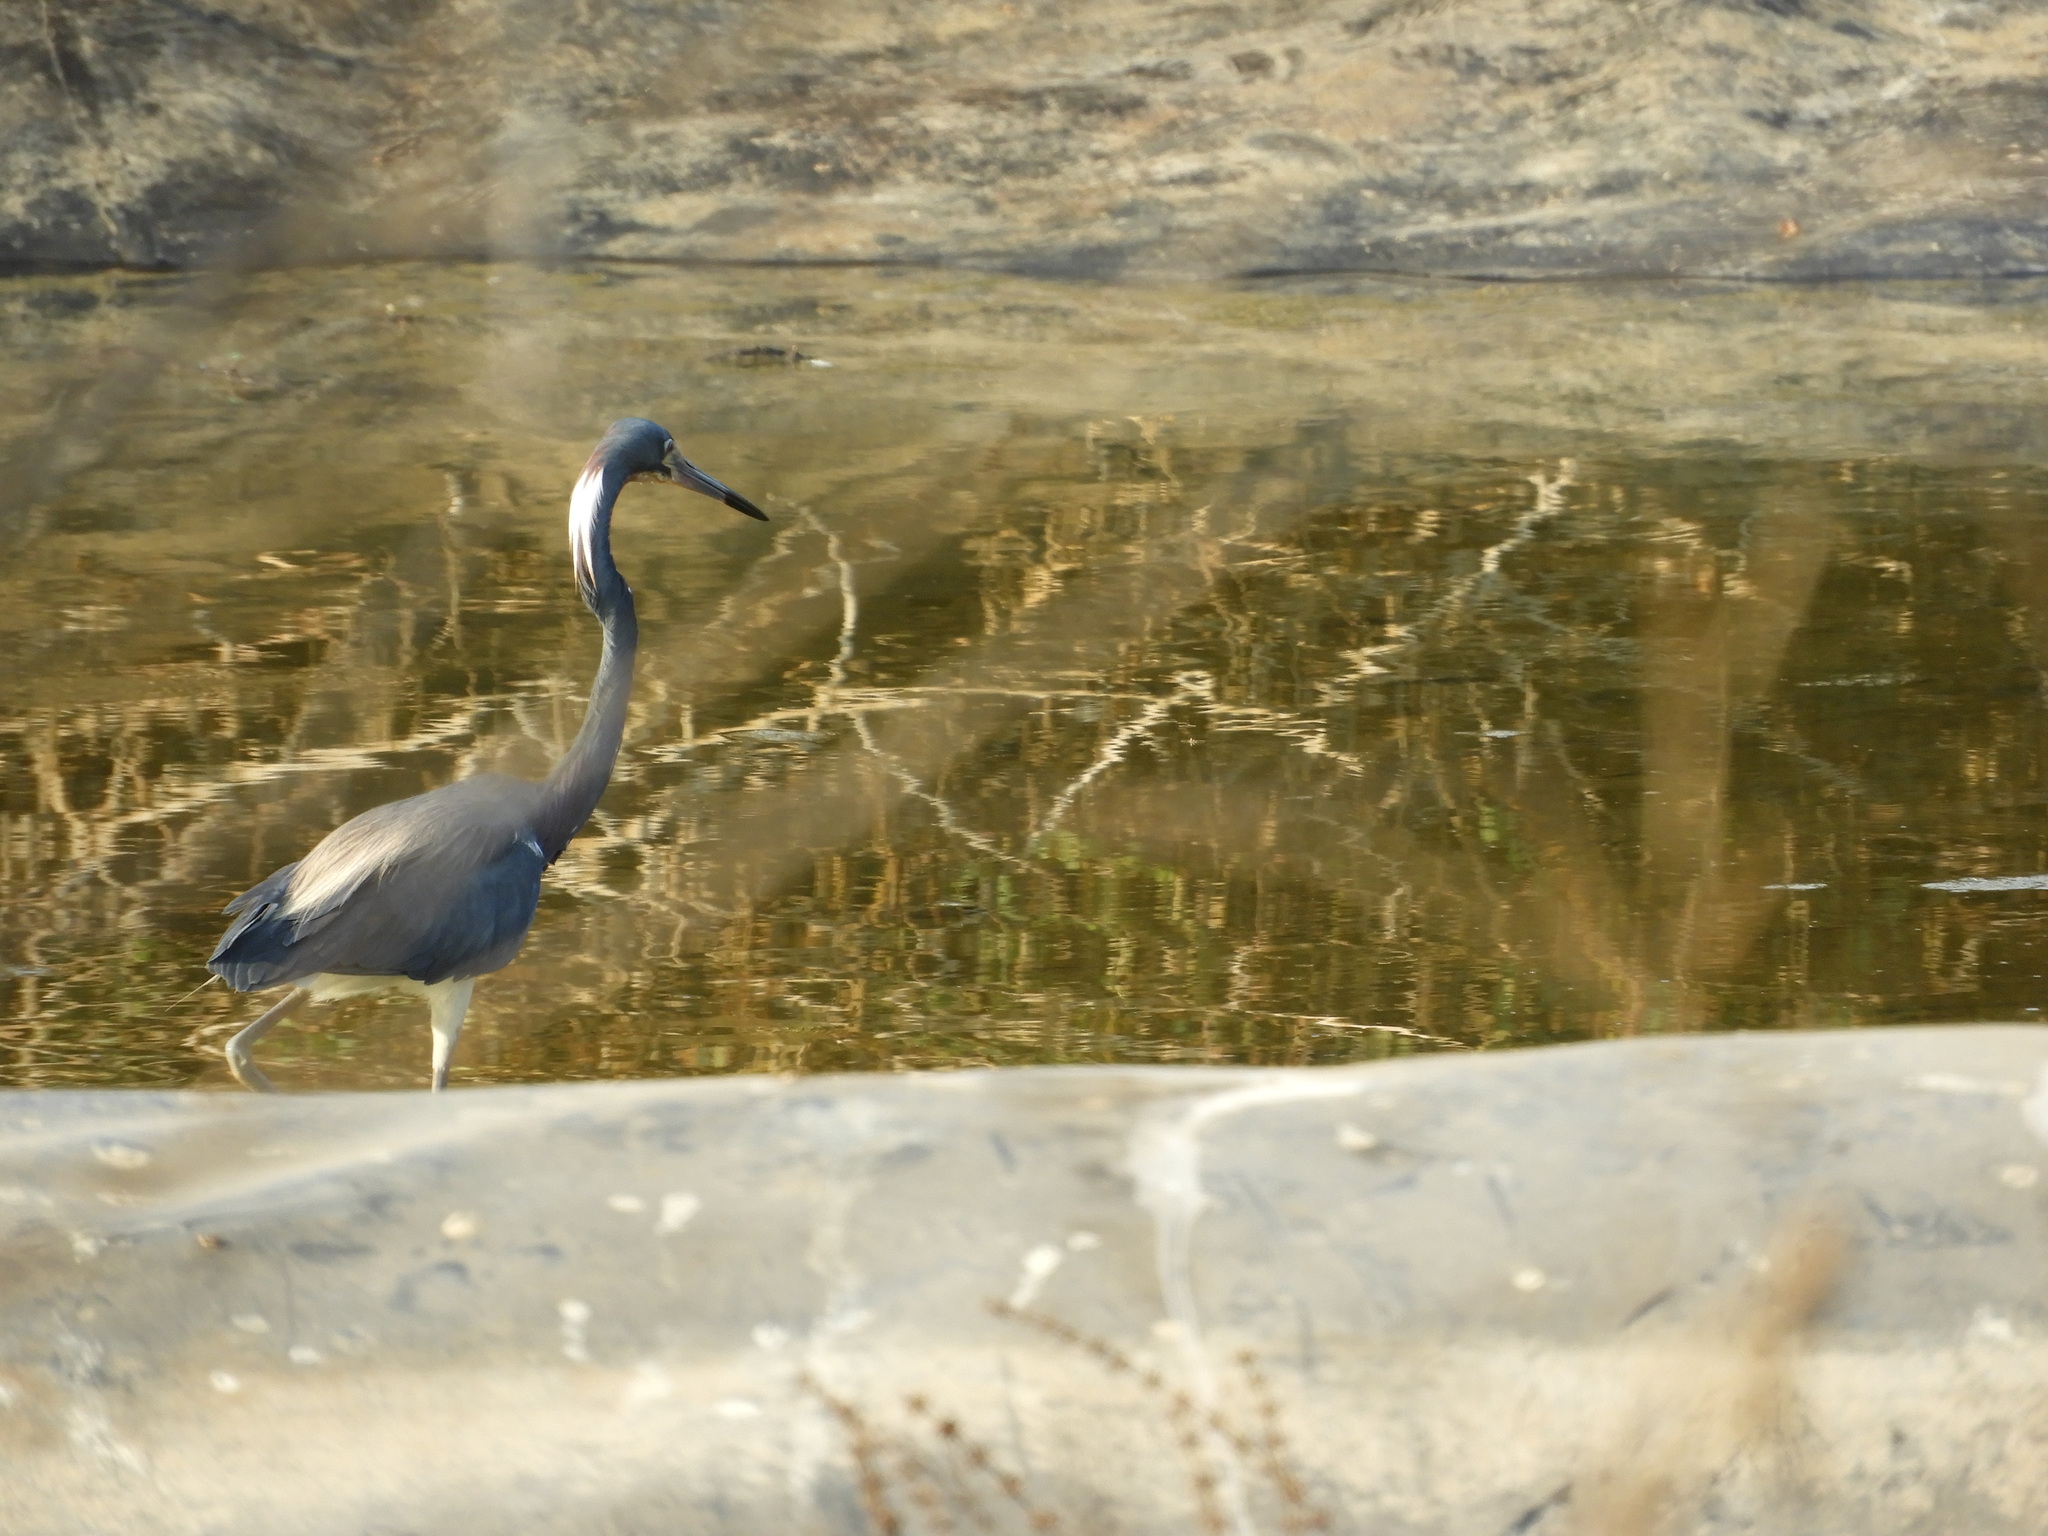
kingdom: Animalia
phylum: Chordata
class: Aves
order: Pelecaniformes
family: Ardeidae
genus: Egretta
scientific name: Egretta tricolor
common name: Tricolored heron
